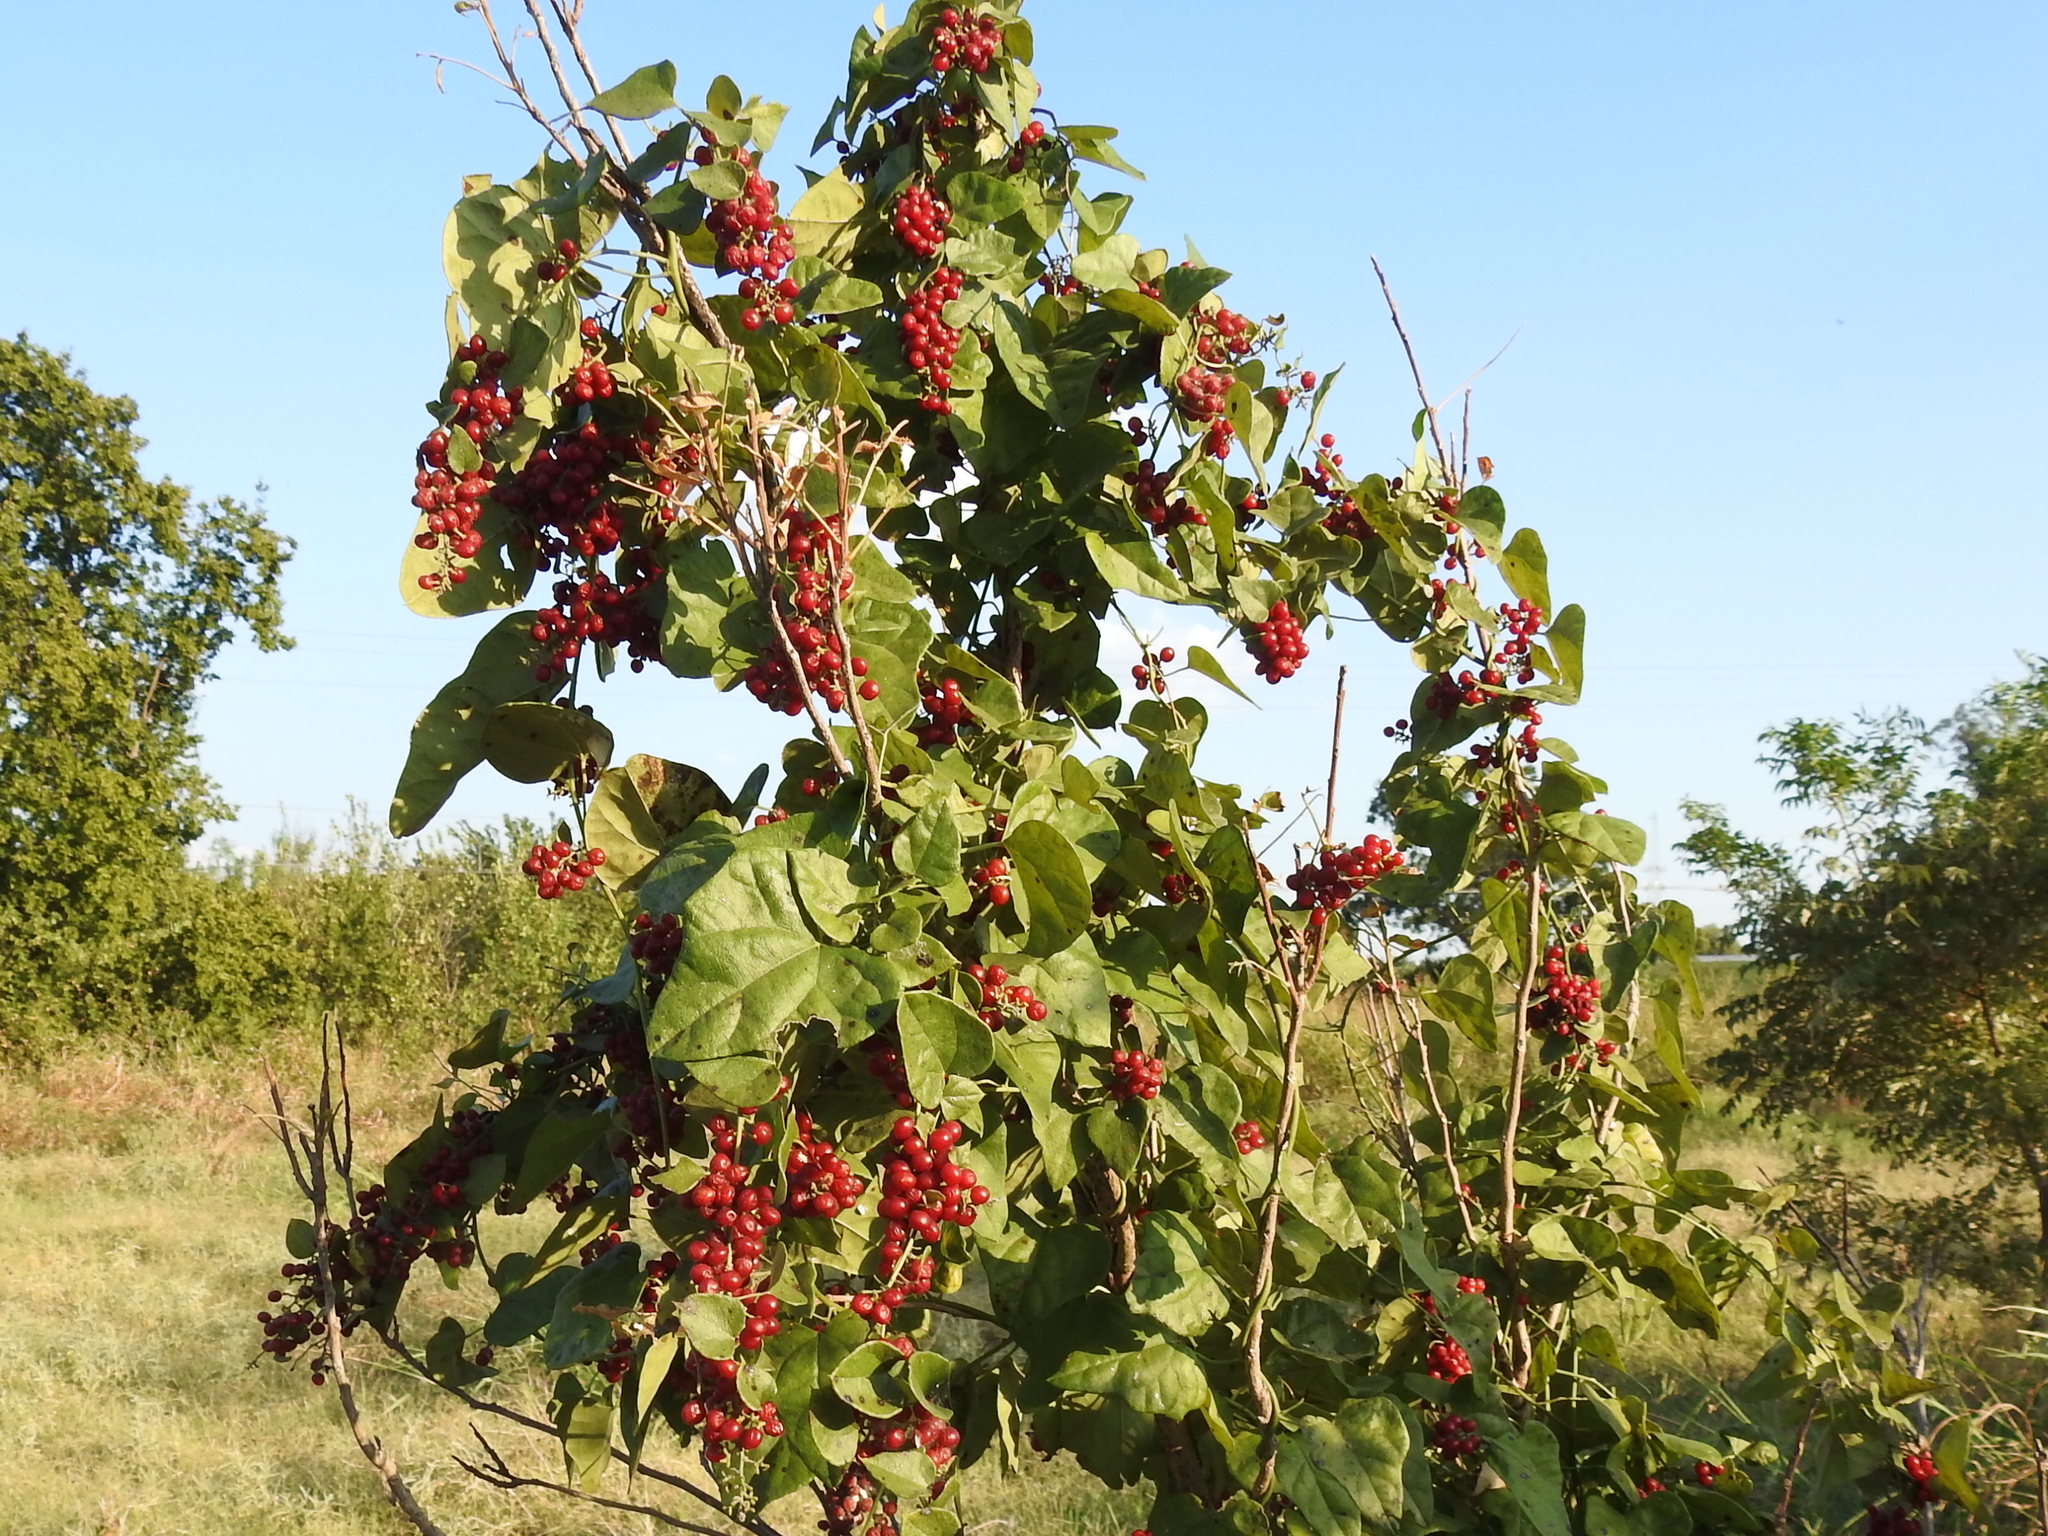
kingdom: Plantae
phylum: Tracheophyta
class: Magnoliopsida
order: Ranunculales
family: Menispermaceae
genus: Cocculus
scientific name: Cocculus carolinus
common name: Carolina moonseed
